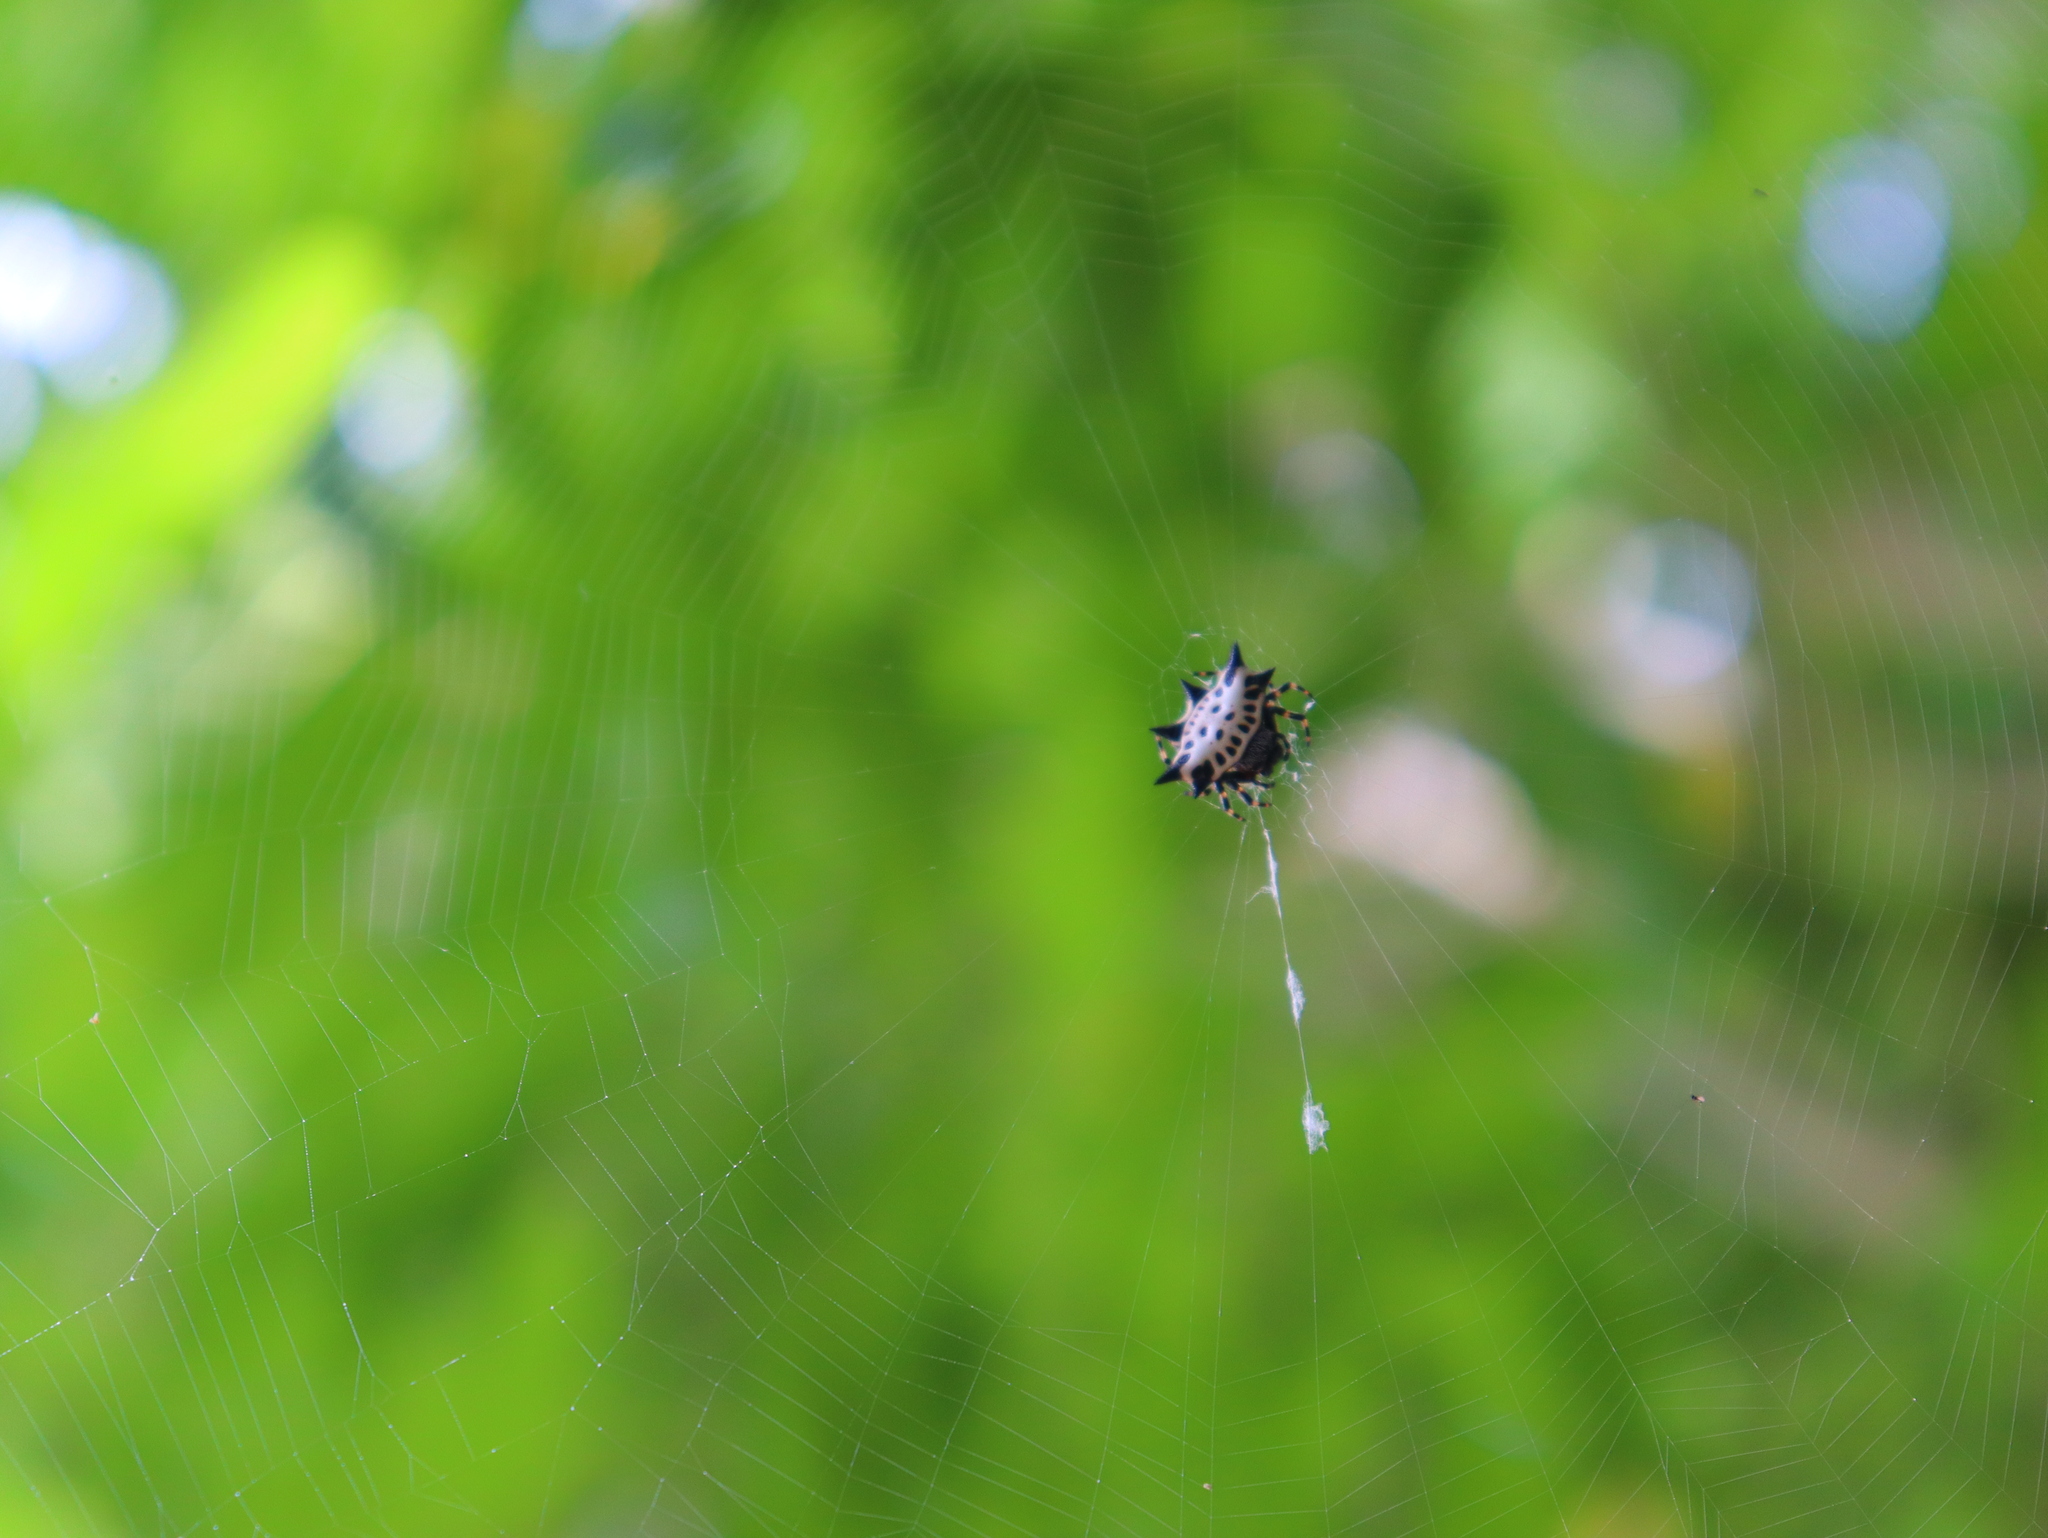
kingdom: Animalia
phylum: Arthropoda
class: Arachnida
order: Araneae
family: Araneidae
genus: Gasteracantha
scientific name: Gasteracantha cancriformis
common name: Orb weavers
